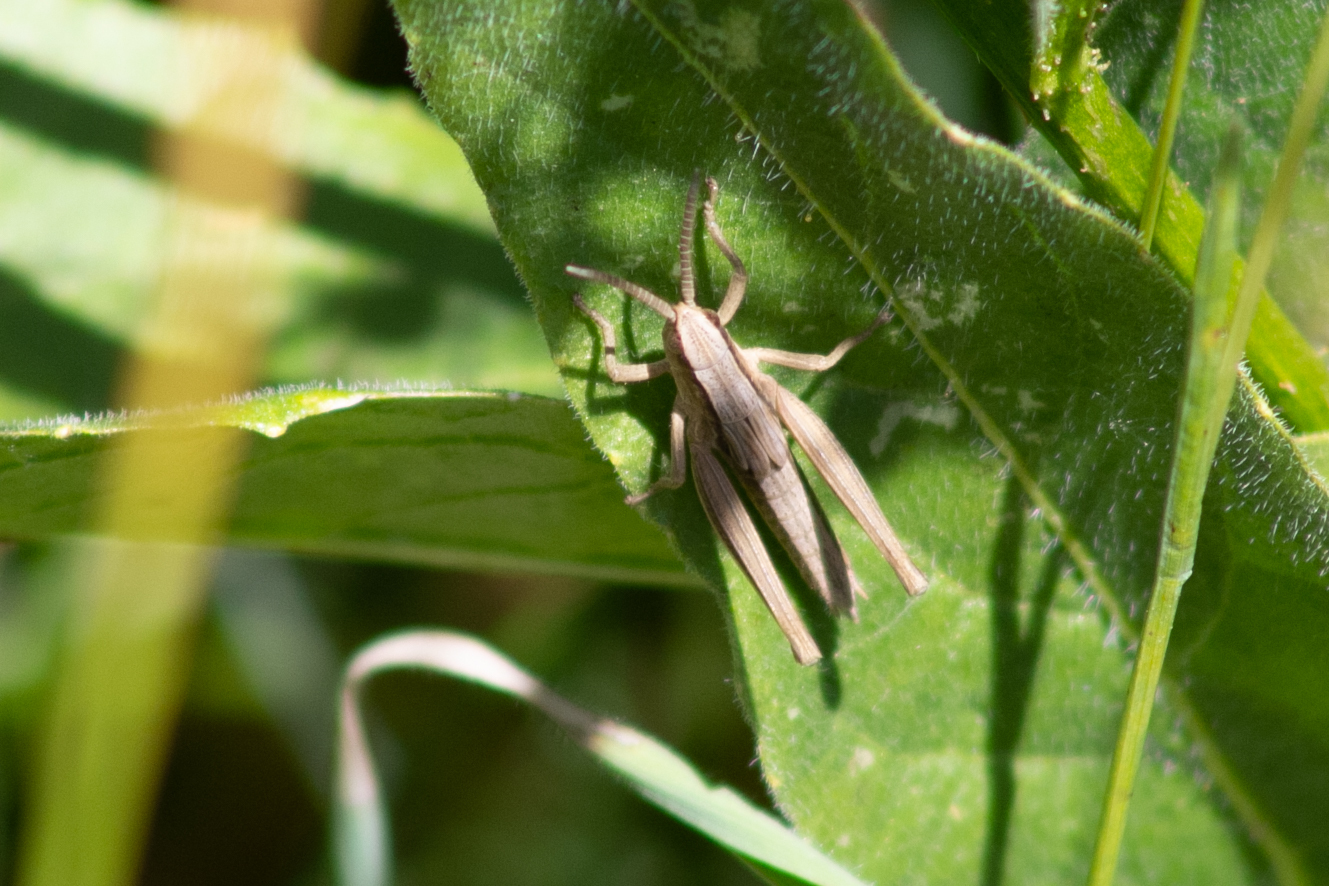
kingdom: Animalia
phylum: Arthropoda
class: Insecta
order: Orthoptera
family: Acrididae
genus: Chrysochraon
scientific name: Chrysochraon dispar
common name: Large gold grasshopper
